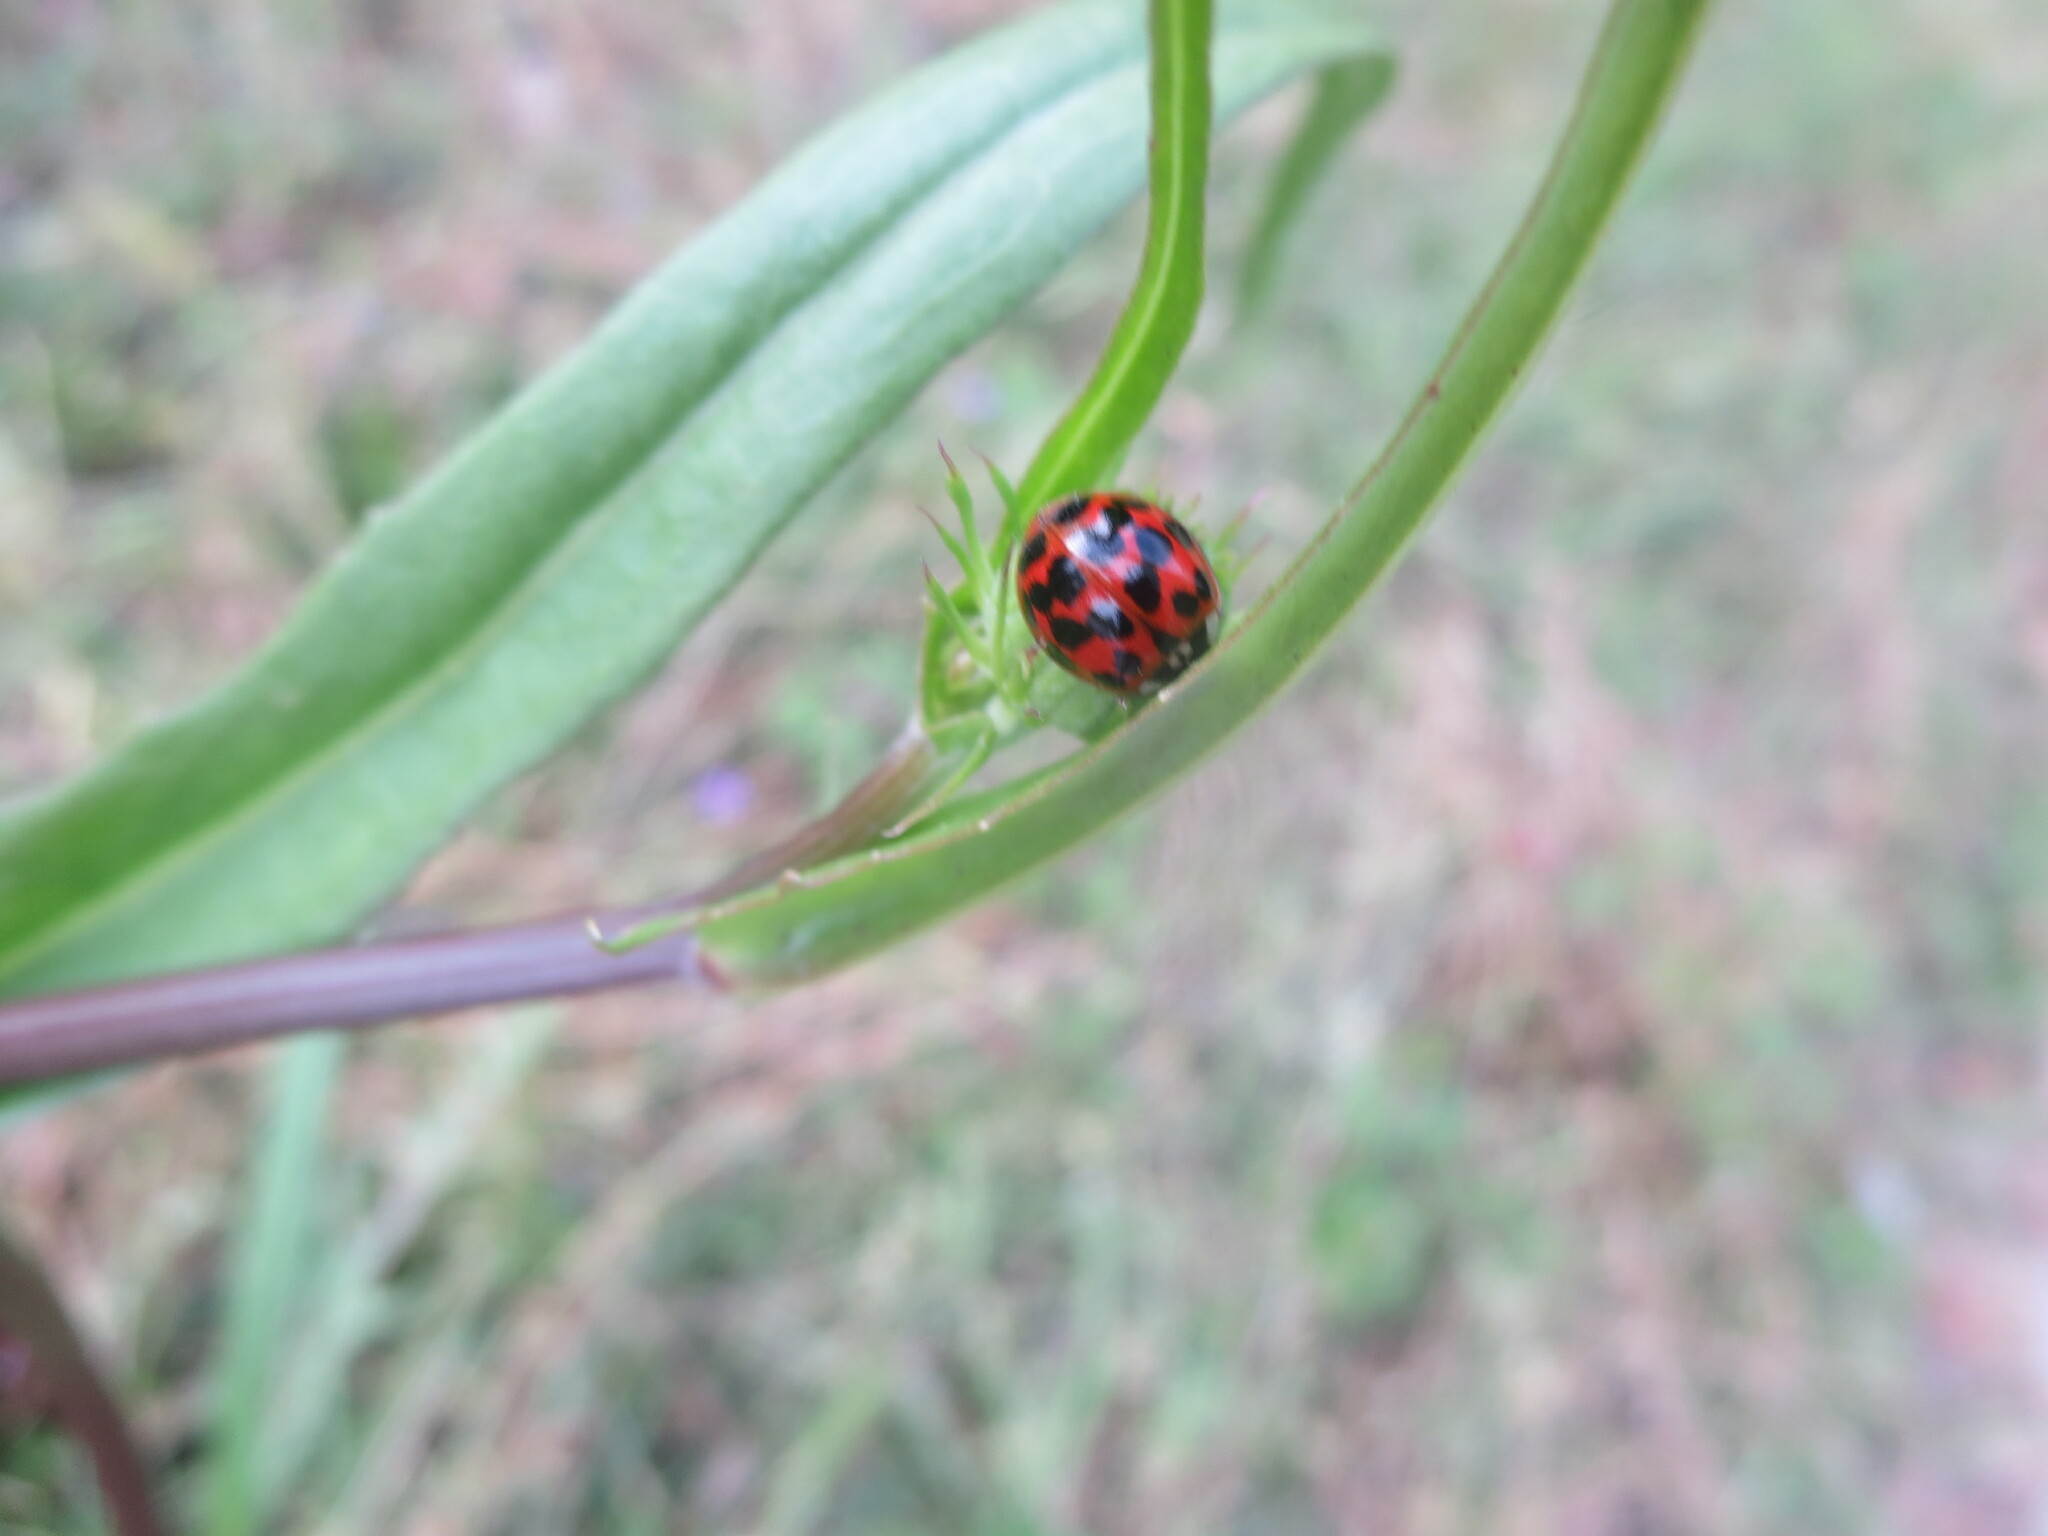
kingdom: Animalia
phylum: Arthropoda
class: Insecta
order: Coleoptera
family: Coccinellidae
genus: Harmonia
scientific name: Harmonia axyridis
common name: Harlequin ladybird
